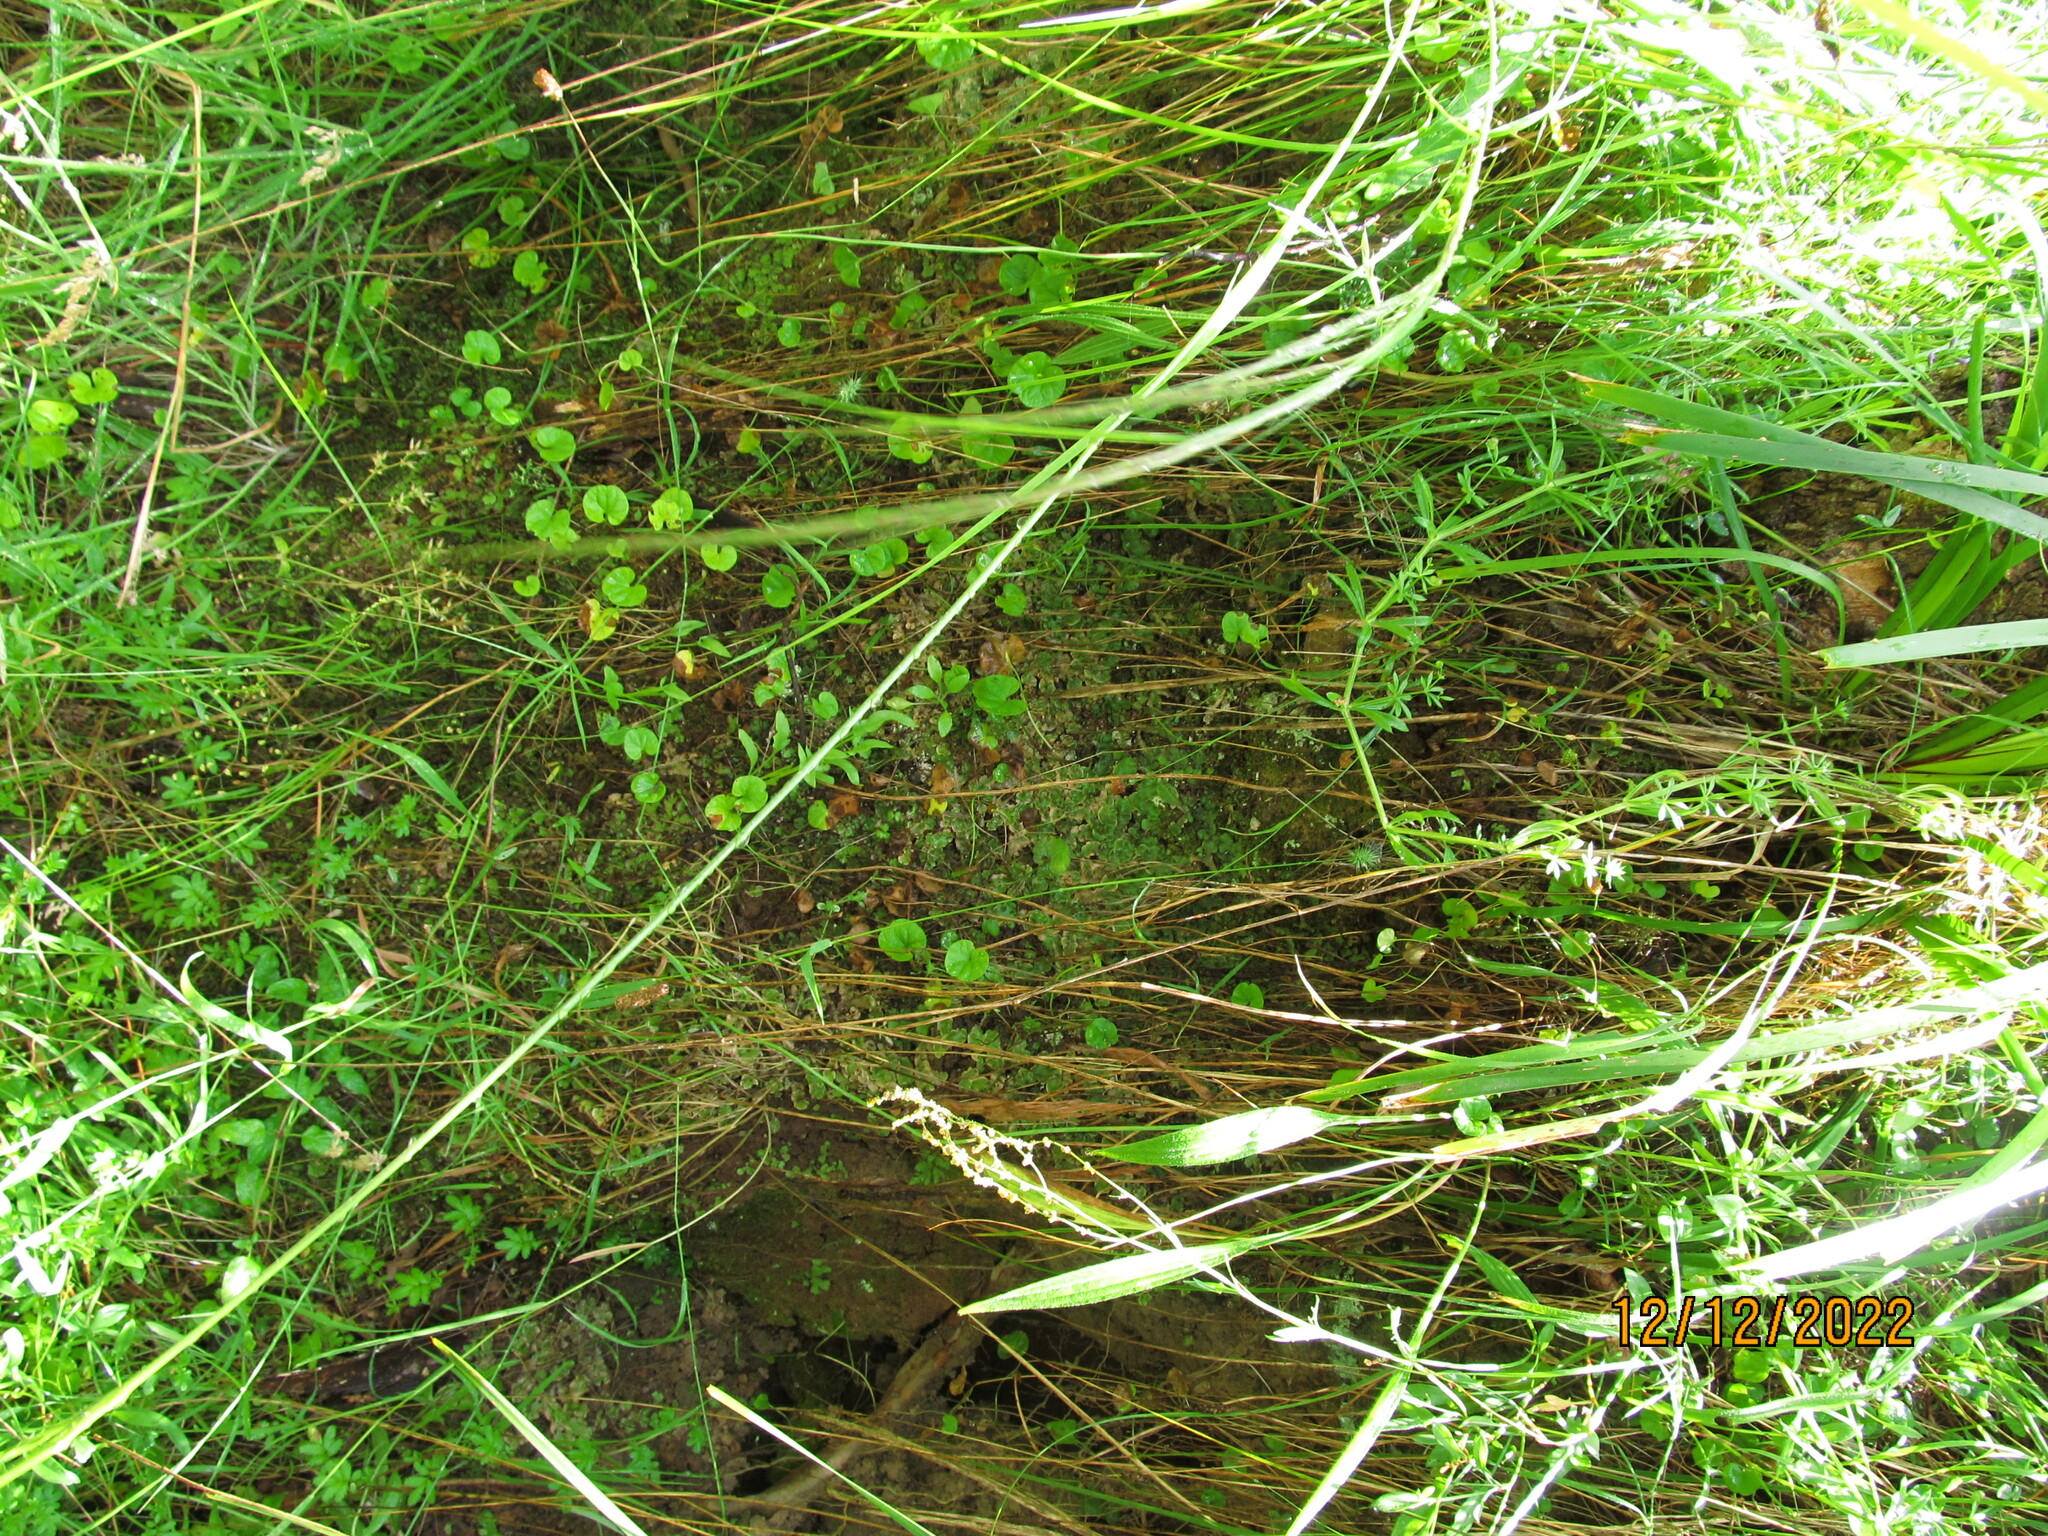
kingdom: Plantae
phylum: Marchantiophyta
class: Marchantiopsida
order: Lunulariales
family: Lunulariaceae
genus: Lunularia
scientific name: Lunularia cruciata
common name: Crescent-cup liverwort
